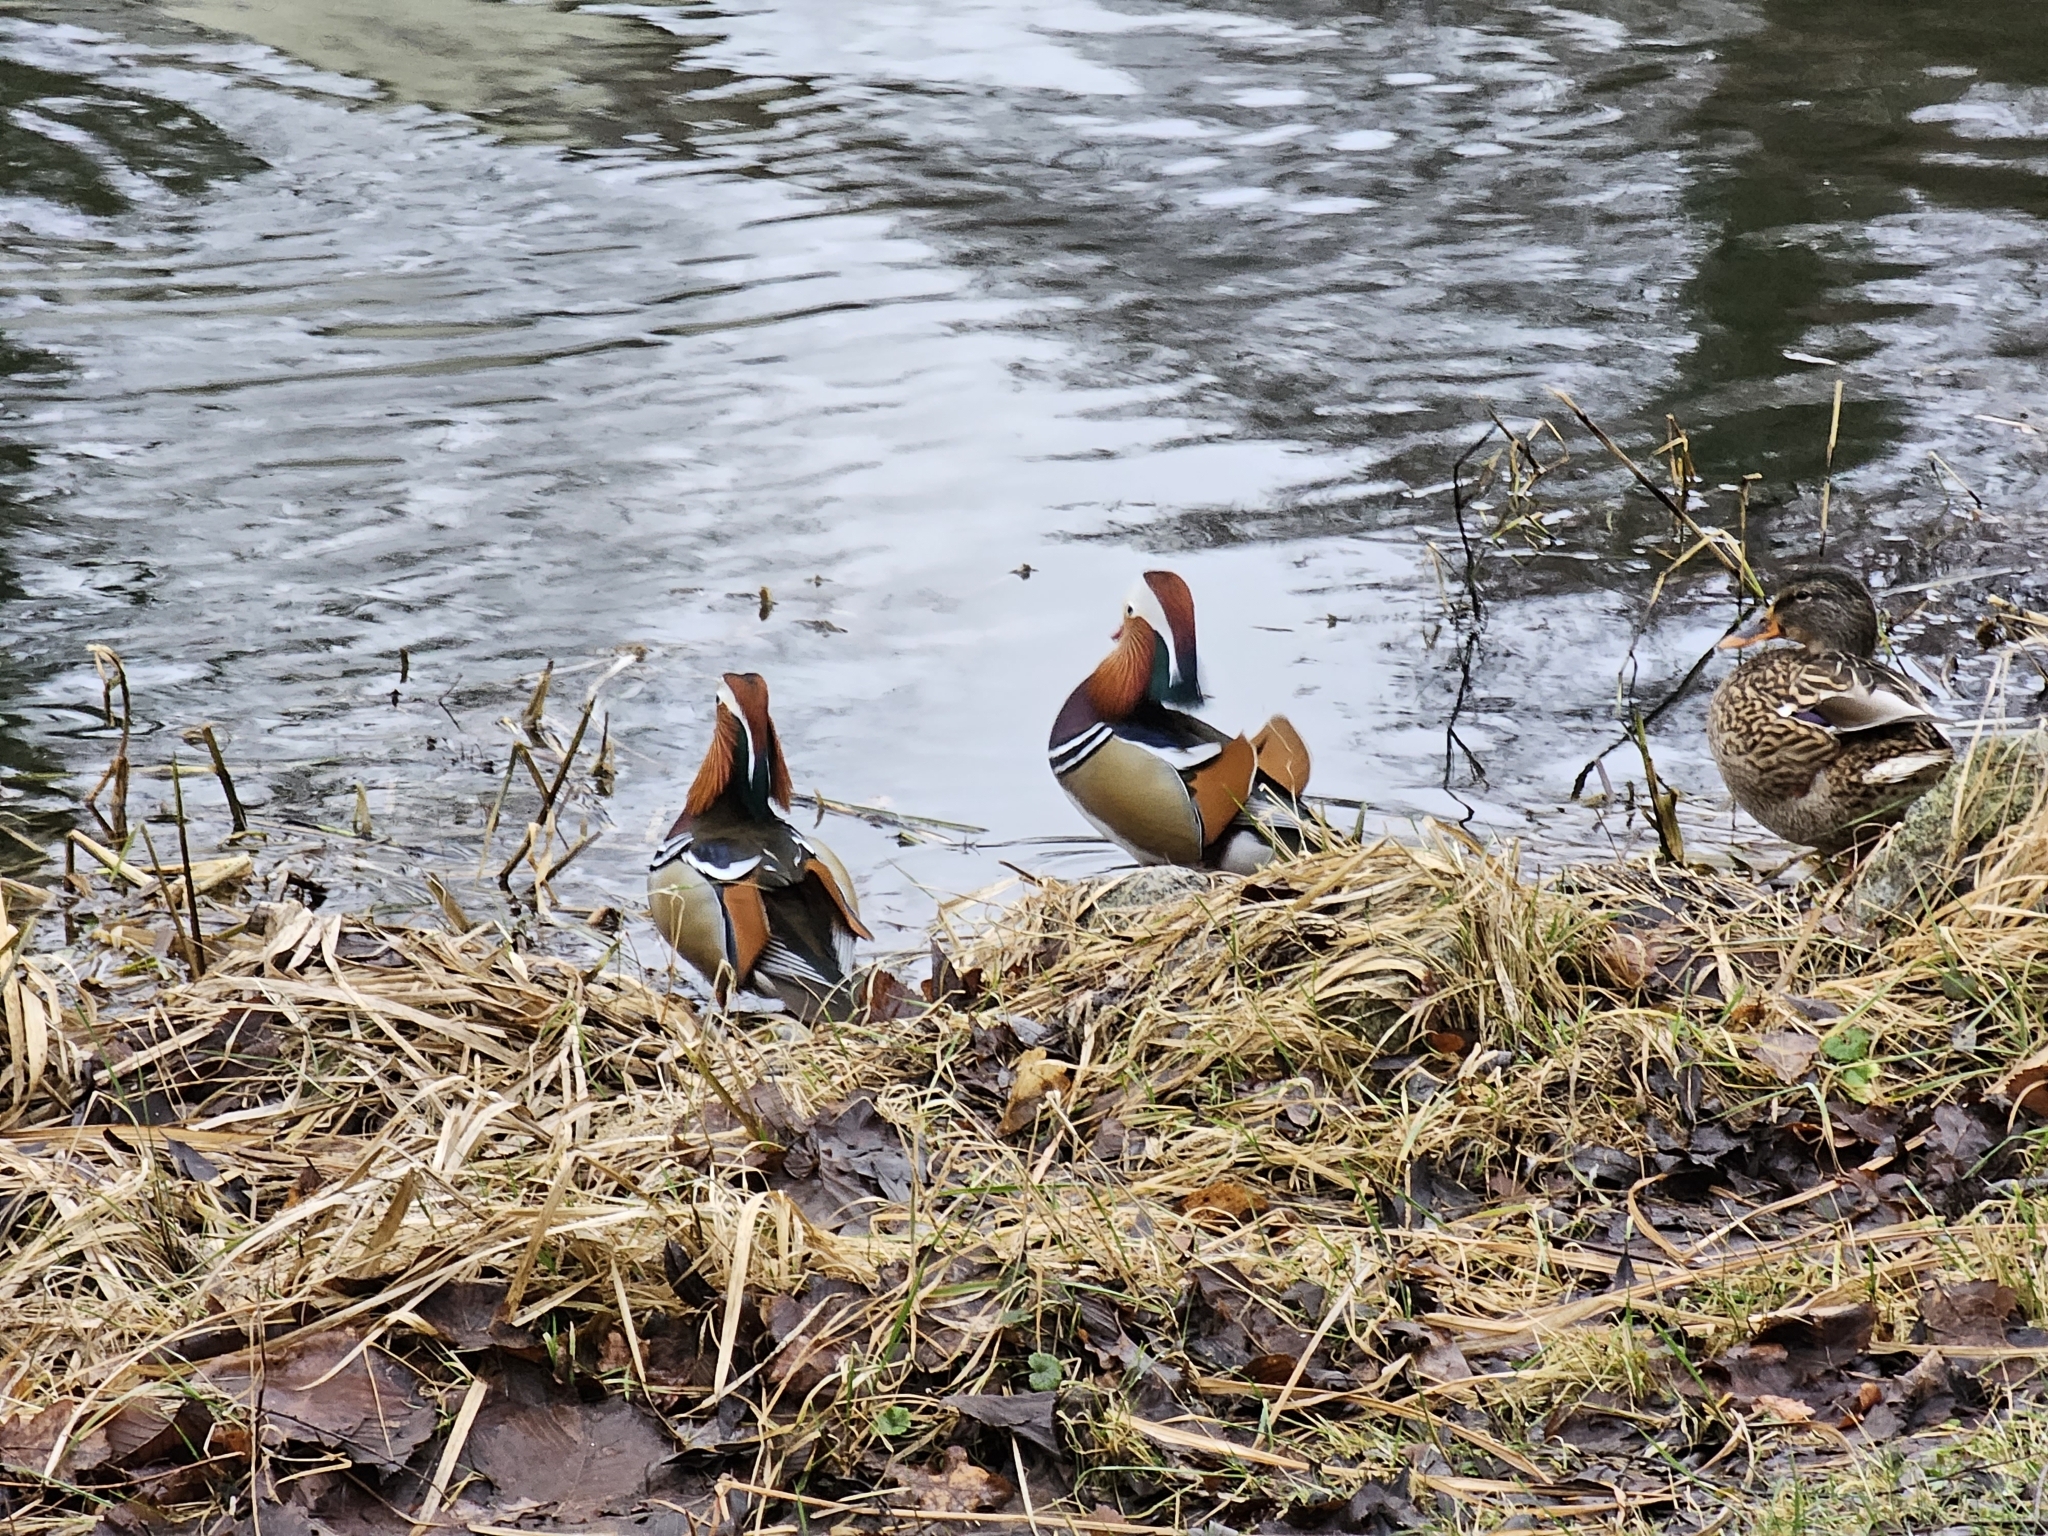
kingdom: Animalia
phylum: Chordata
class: Aves
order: Anseriformes
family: Anatidae
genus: Aix
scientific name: Aix galericulata
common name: Mandarin duck
